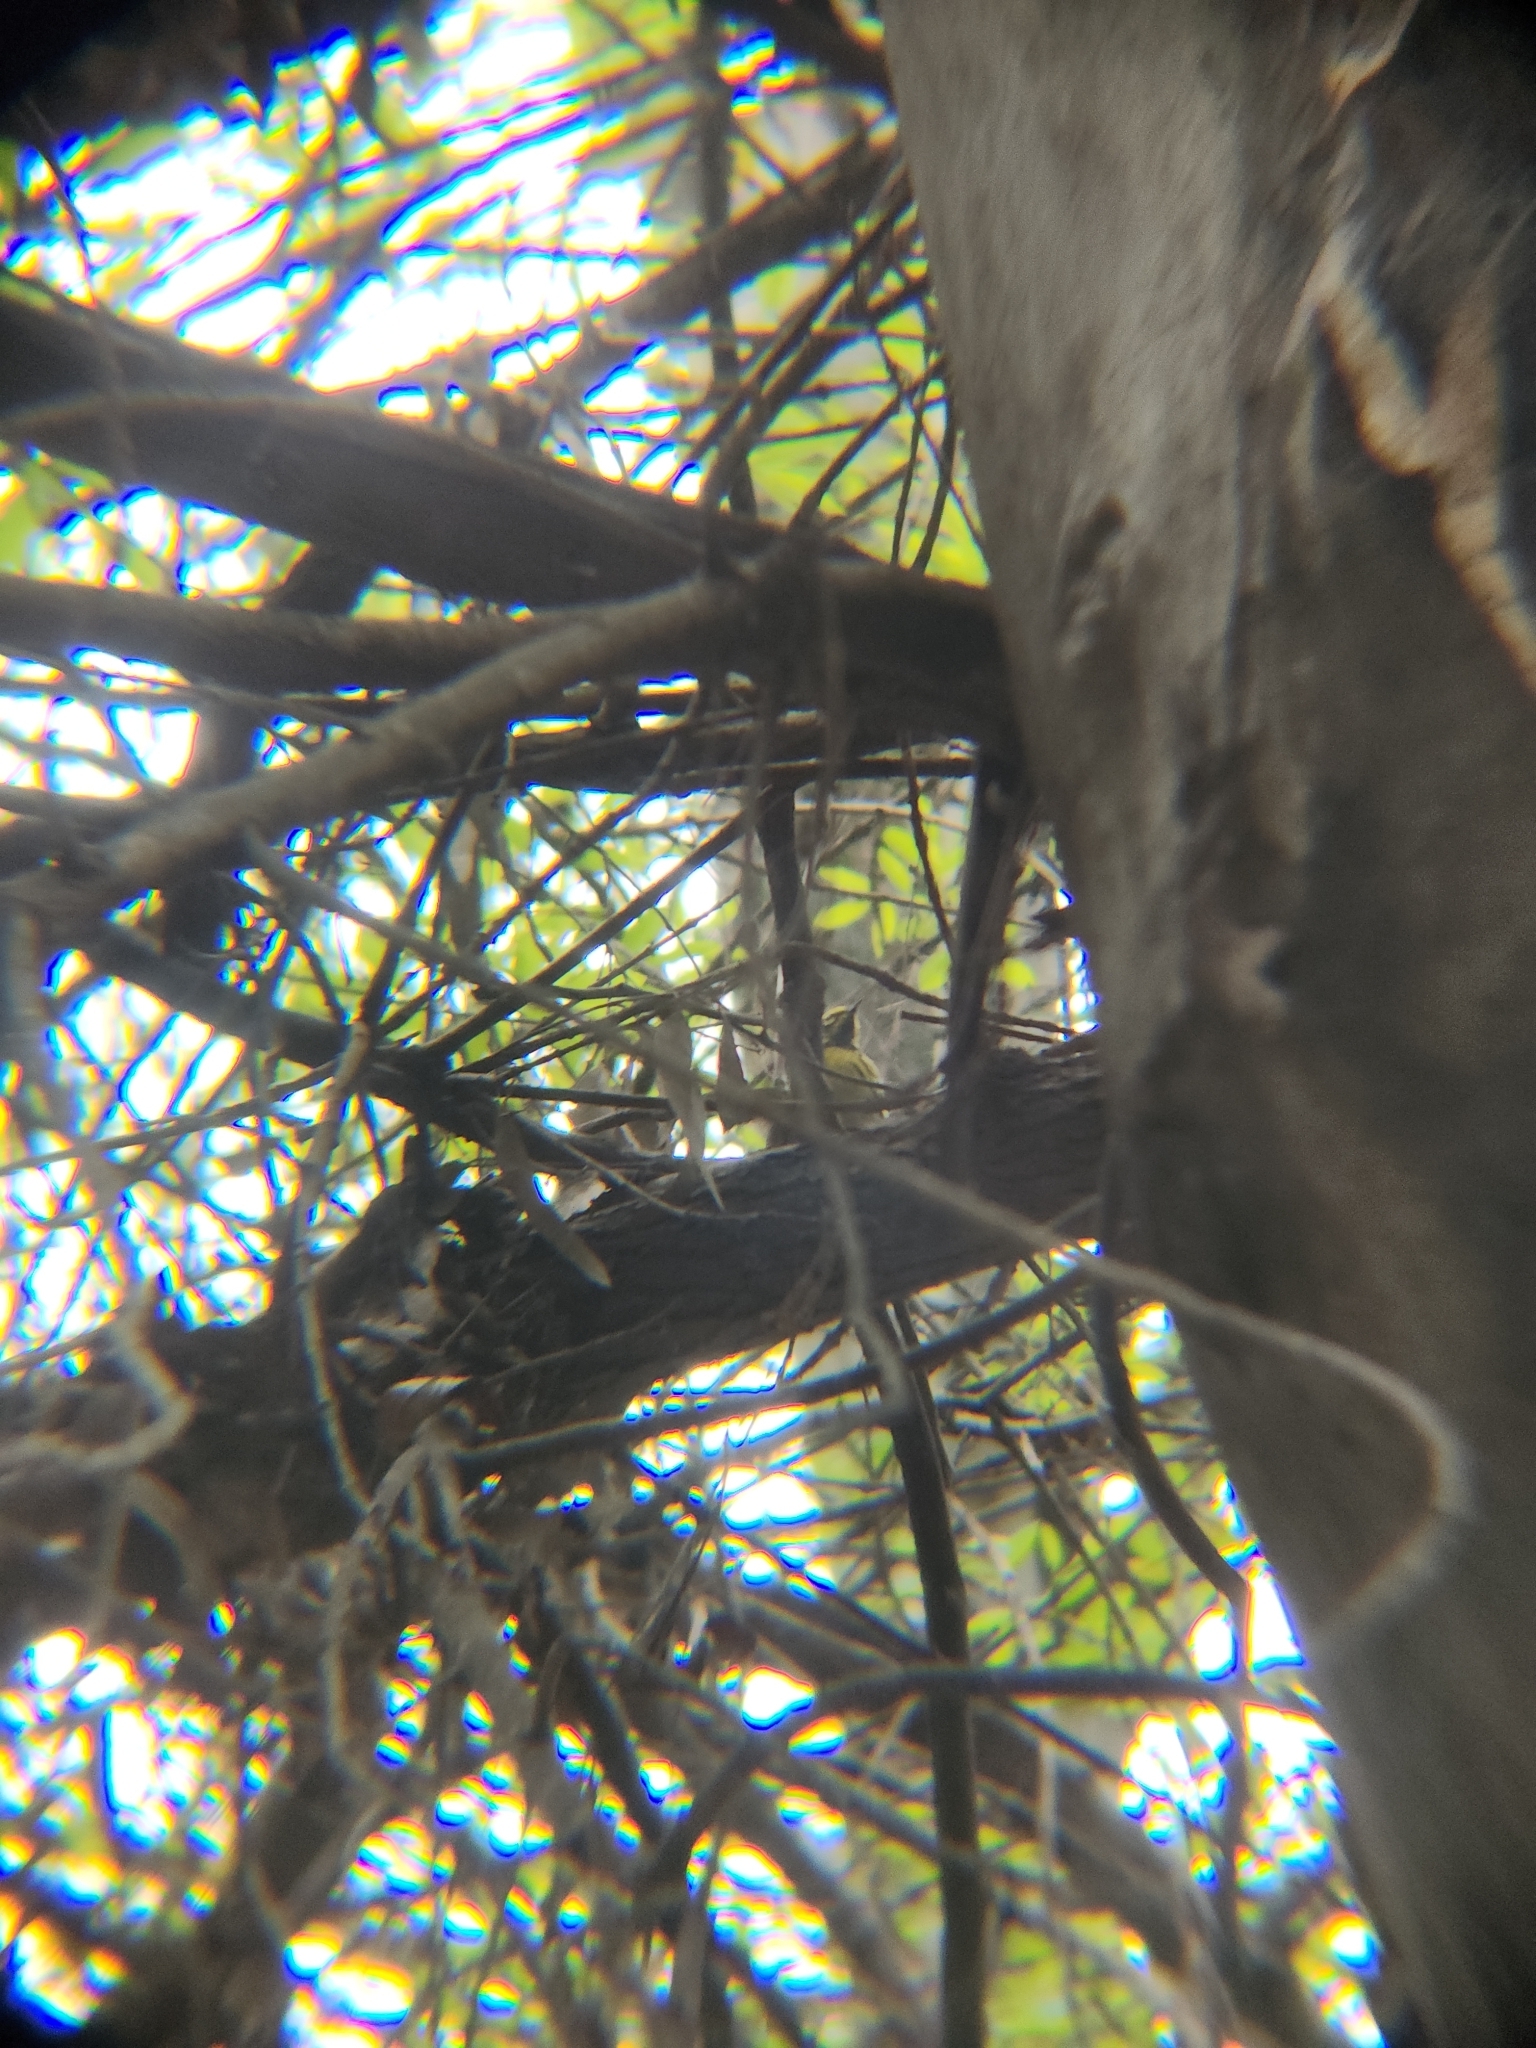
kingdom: Animalia
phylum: Chordata
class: Aves
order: Passeriformes
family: Parulidae
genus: Setophaga
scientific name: Setophaga townsendi
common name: Townsend's warbler
